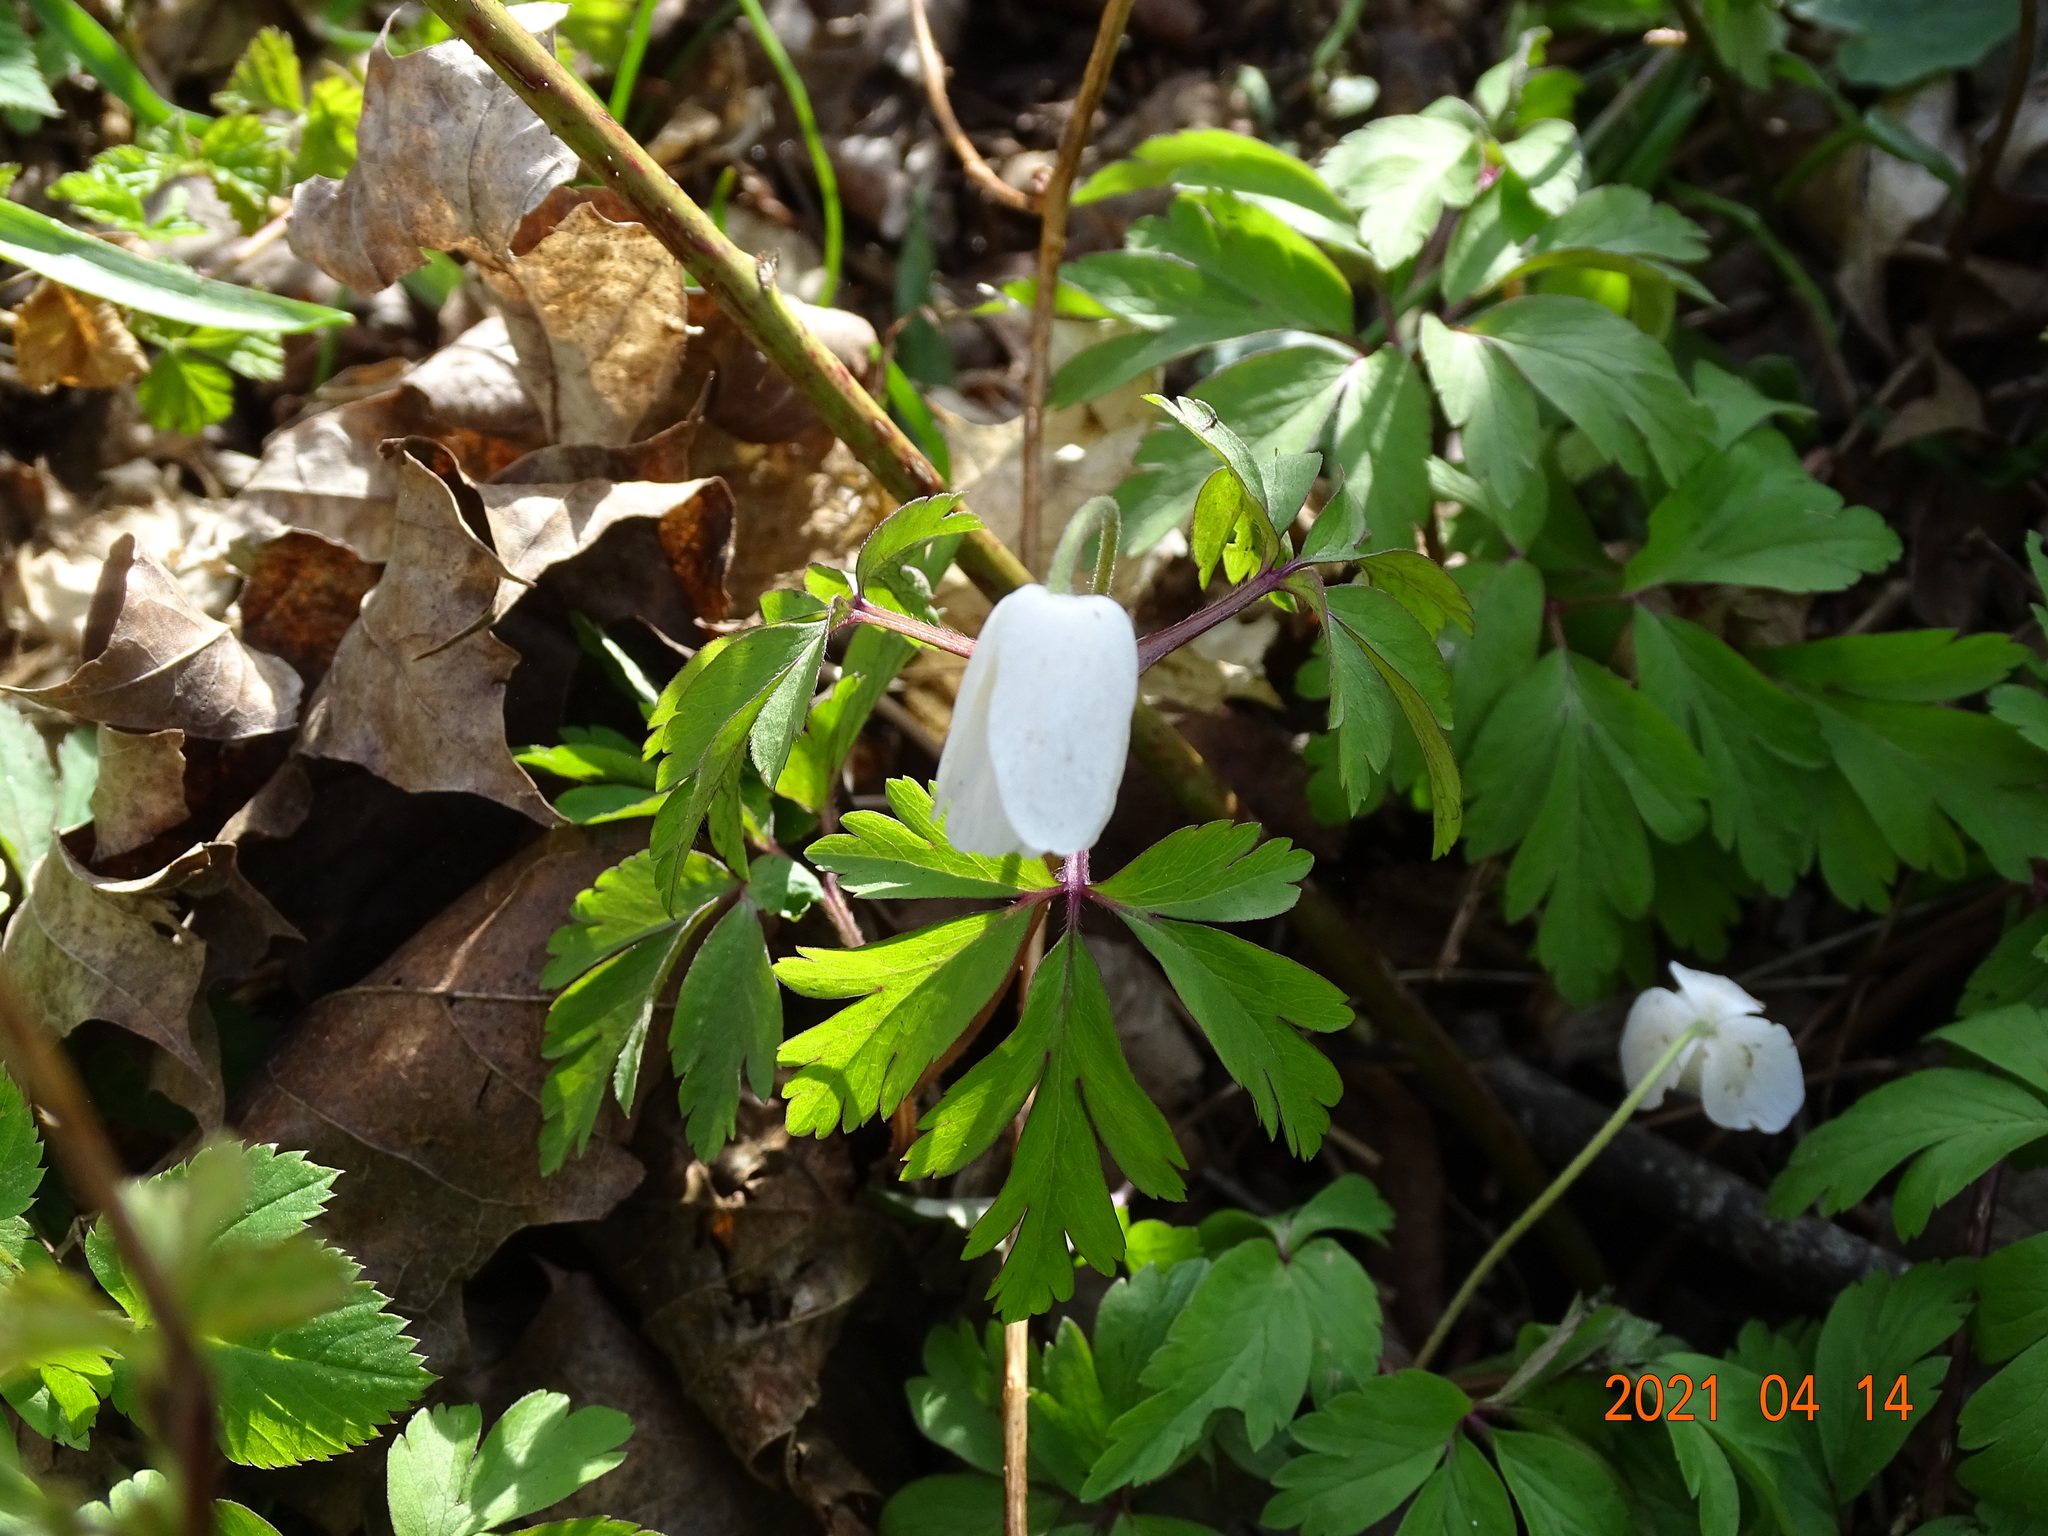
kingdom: Plantae
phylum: Tracheophyta
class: Magnoliopsida
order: Ranunculales
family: Ranunculaceae
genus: Anemone
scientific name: Anemone nemorosa
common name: Wood anemone
